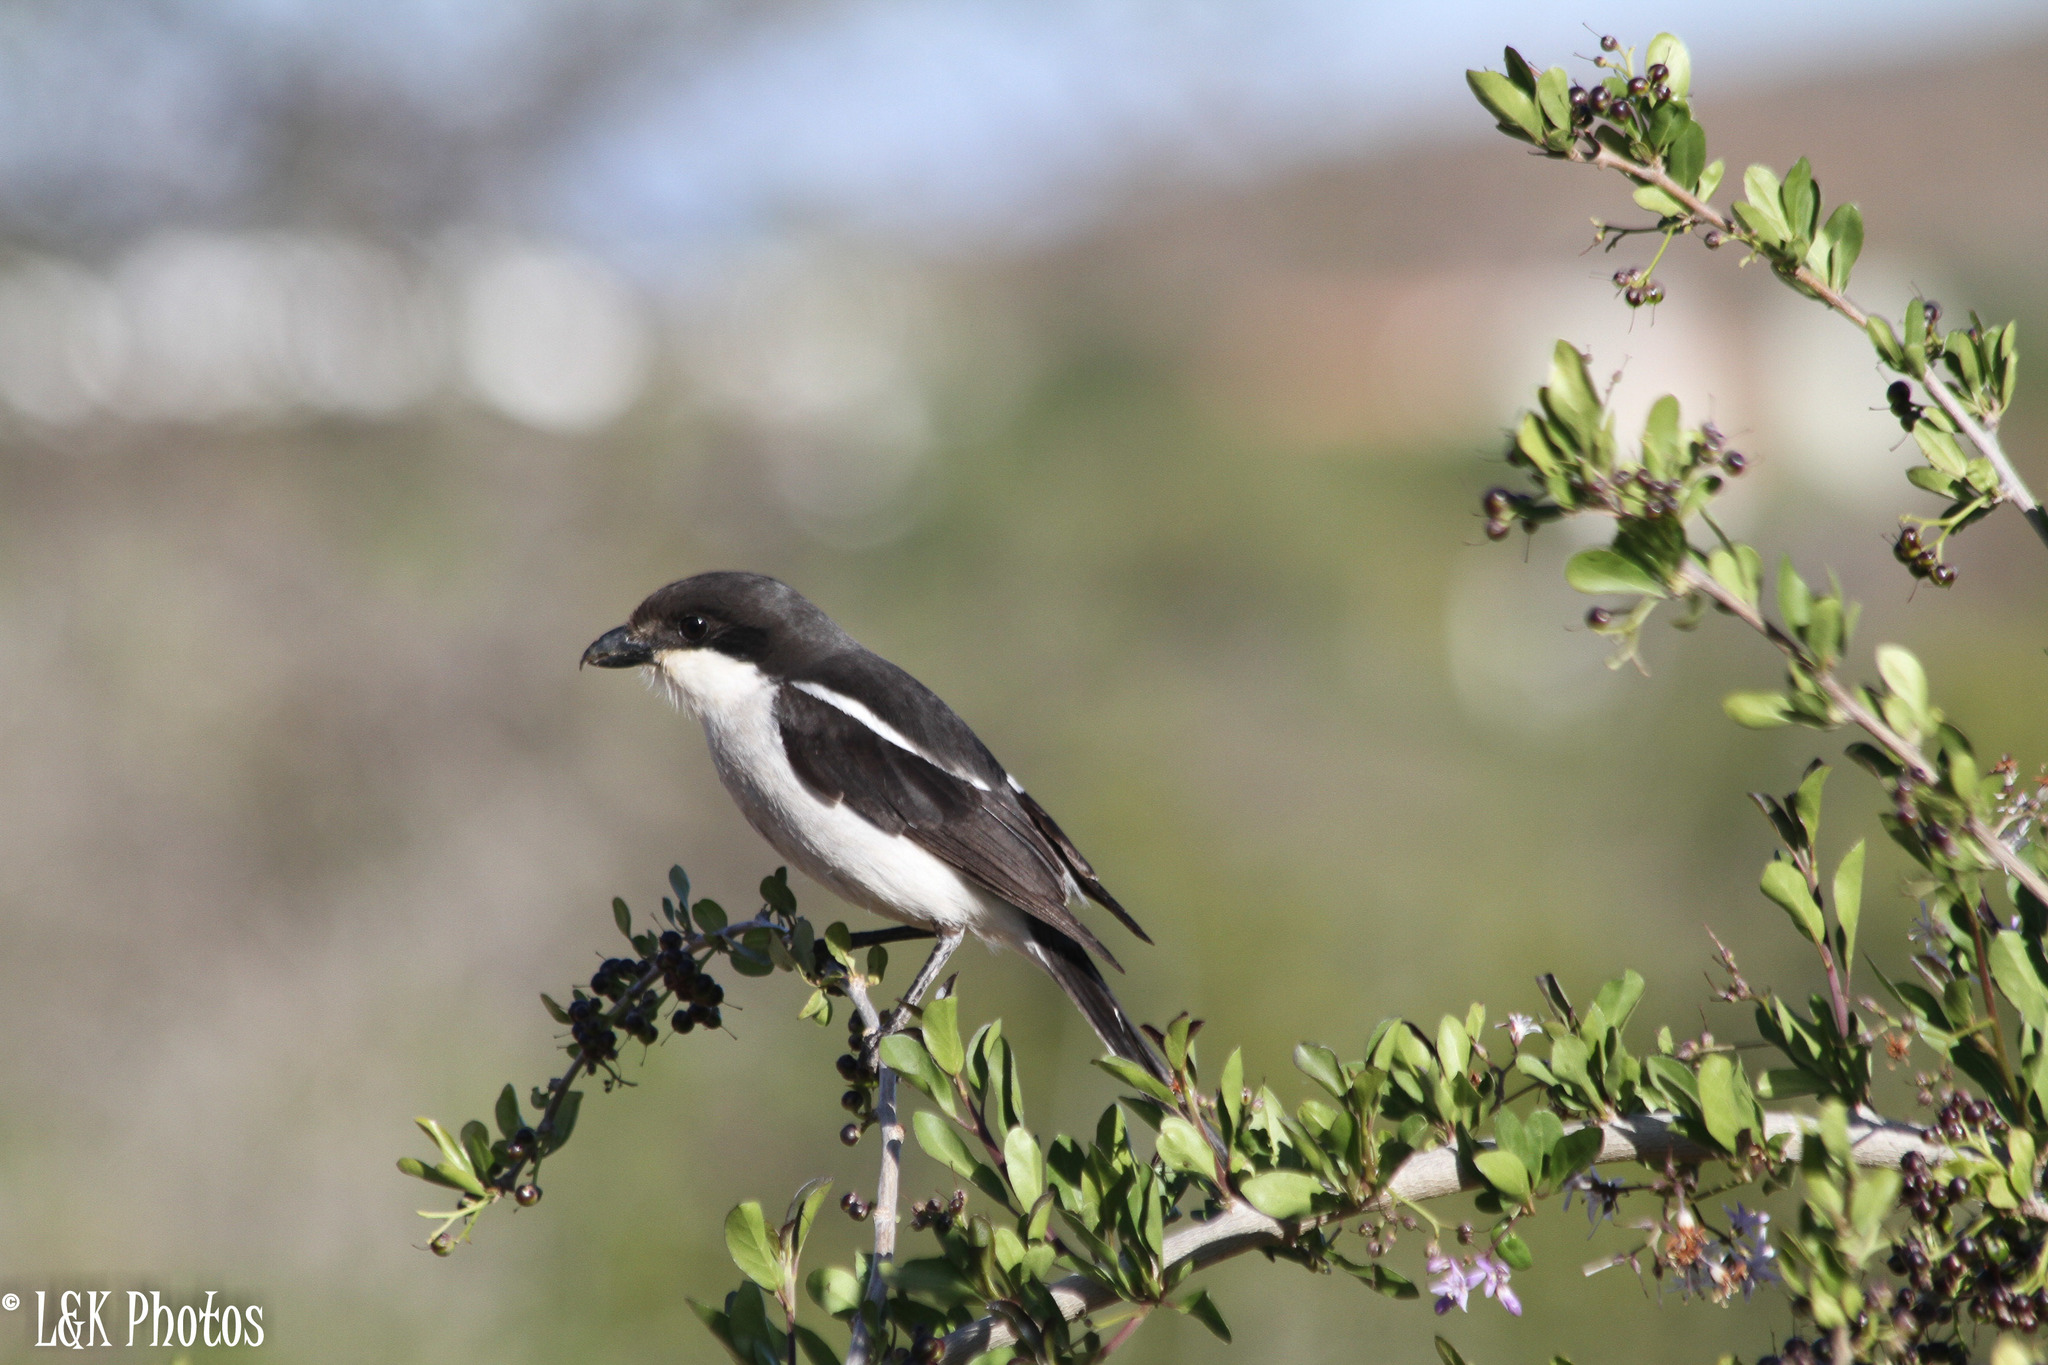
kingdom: Animalia
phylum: Chordata
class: Aves
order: Passeriformes
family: Laniidae
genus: Lanius
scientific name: Lanius collaris
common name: Southern fiscal
